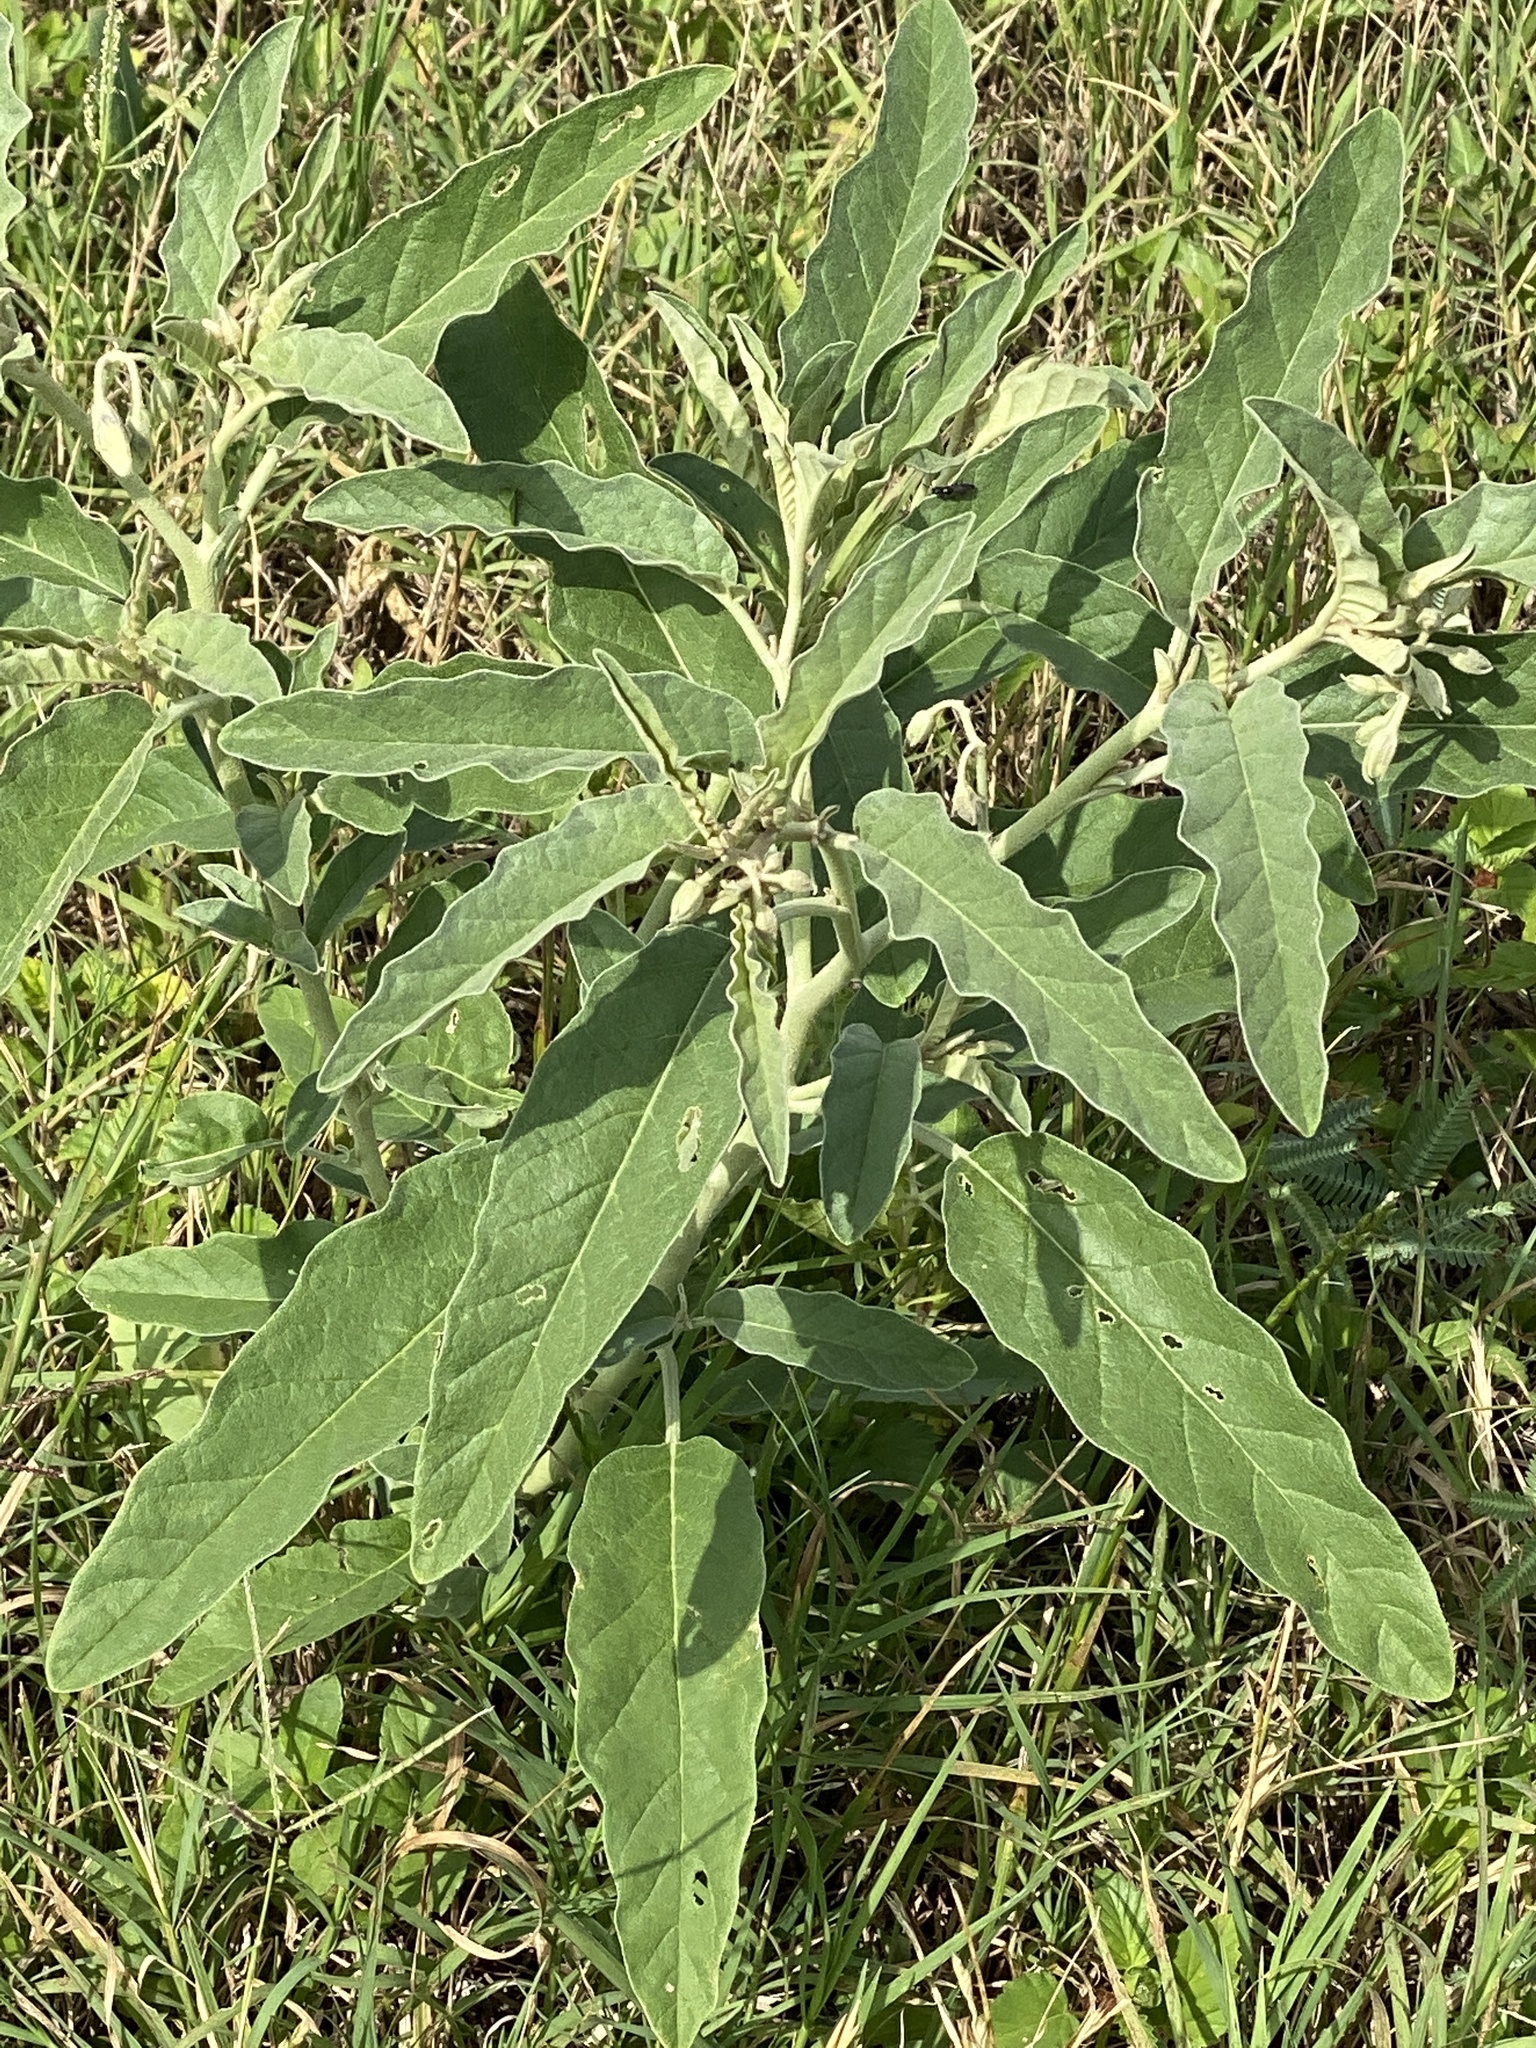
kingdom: Plantae
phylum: Tracheophyta
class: Magnoliopsida
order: Solanales
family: Solanaceae
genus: Solanum
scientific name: Solanum elaeagnifolium
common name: Silverleaf nightshade
